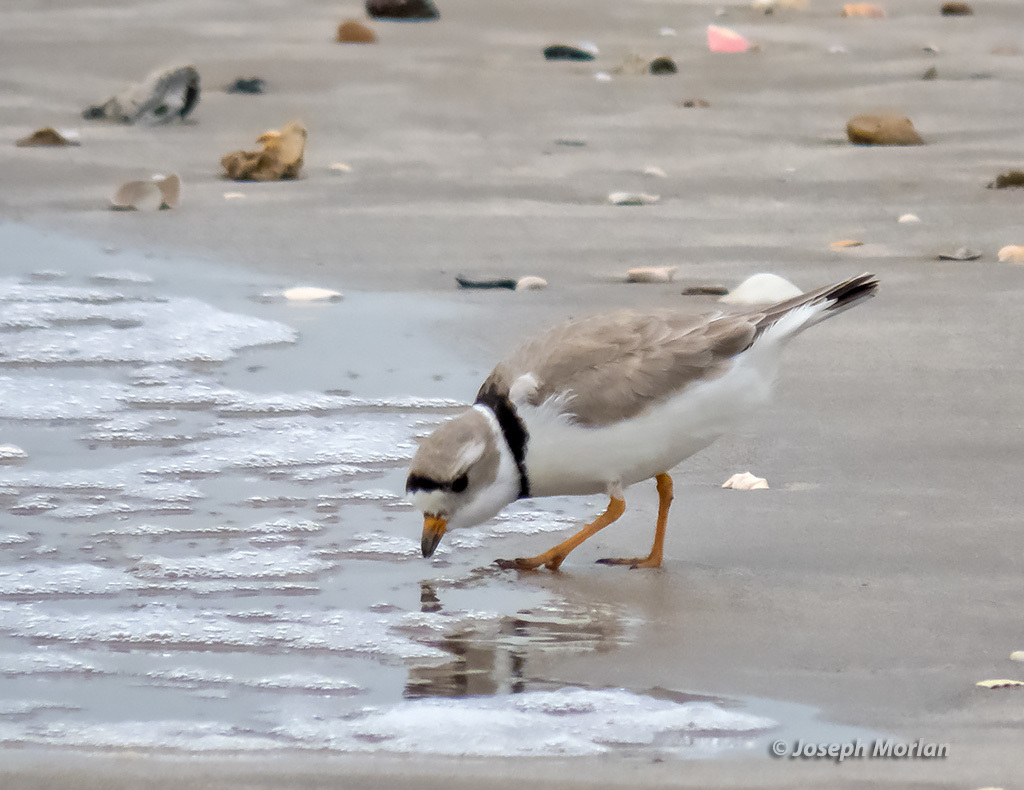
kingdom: Animalia
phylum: Chordata
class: Aves
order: Charadriiformes
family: Charadriidae
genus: Charadrius
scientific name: Charadrius melodus
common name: Piping plover
